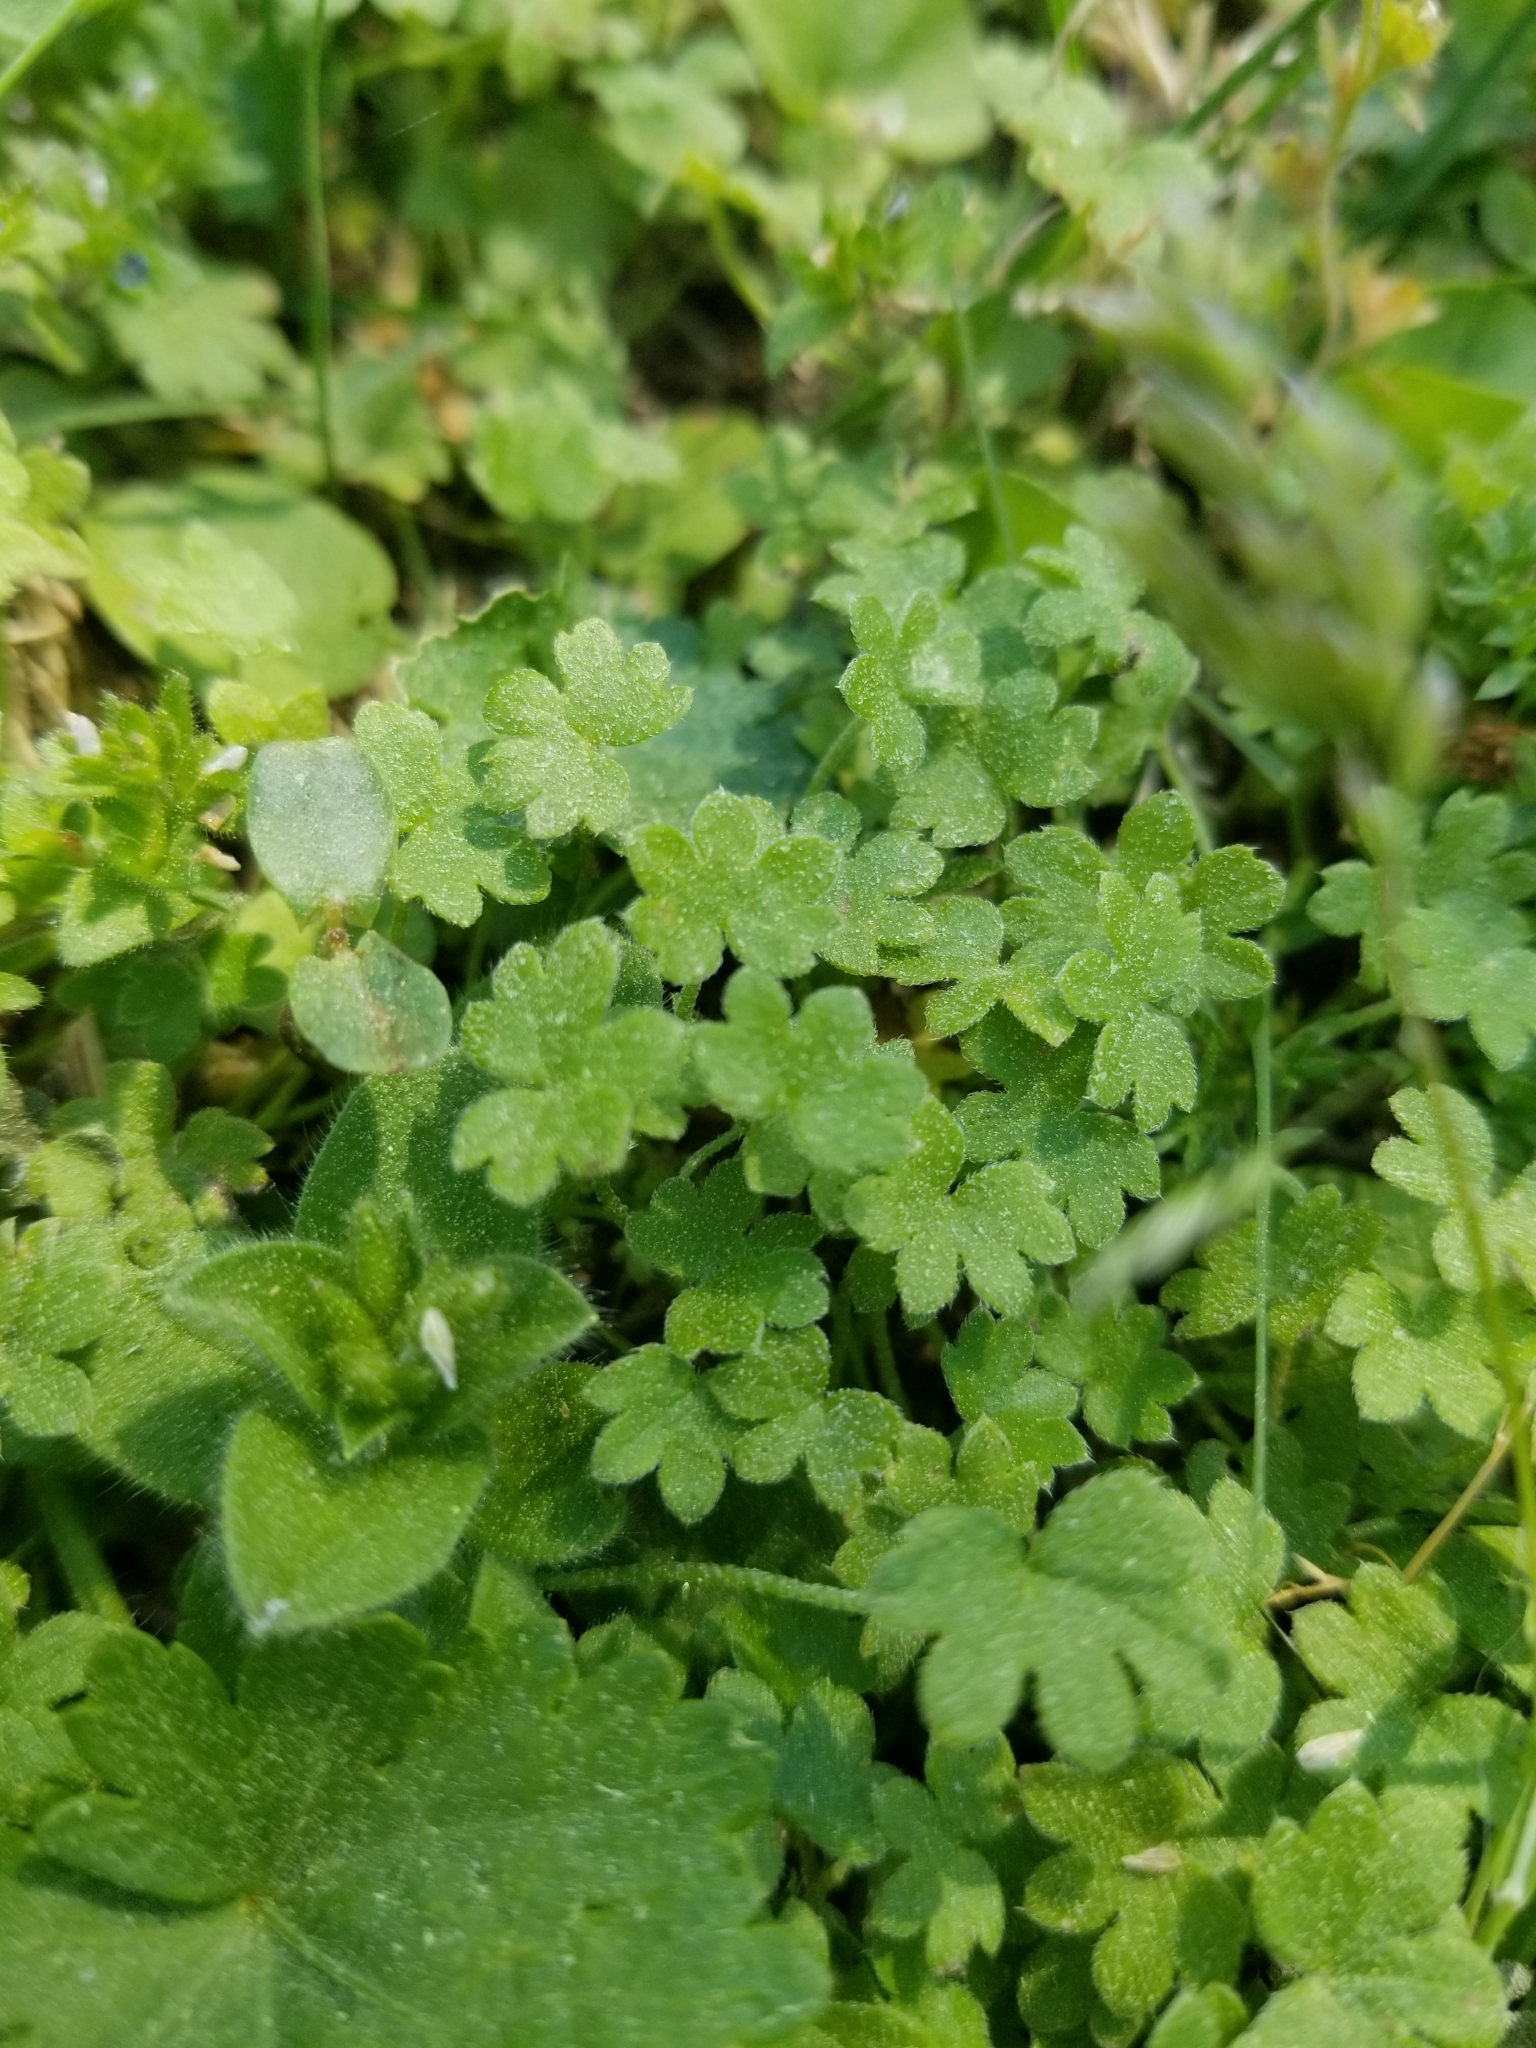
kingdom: Plantae
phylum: Tracheophyta
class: Magnoliopsida
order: Apiales
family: Apiaceae
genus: Bowlesia
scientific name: Bowlesia incana
